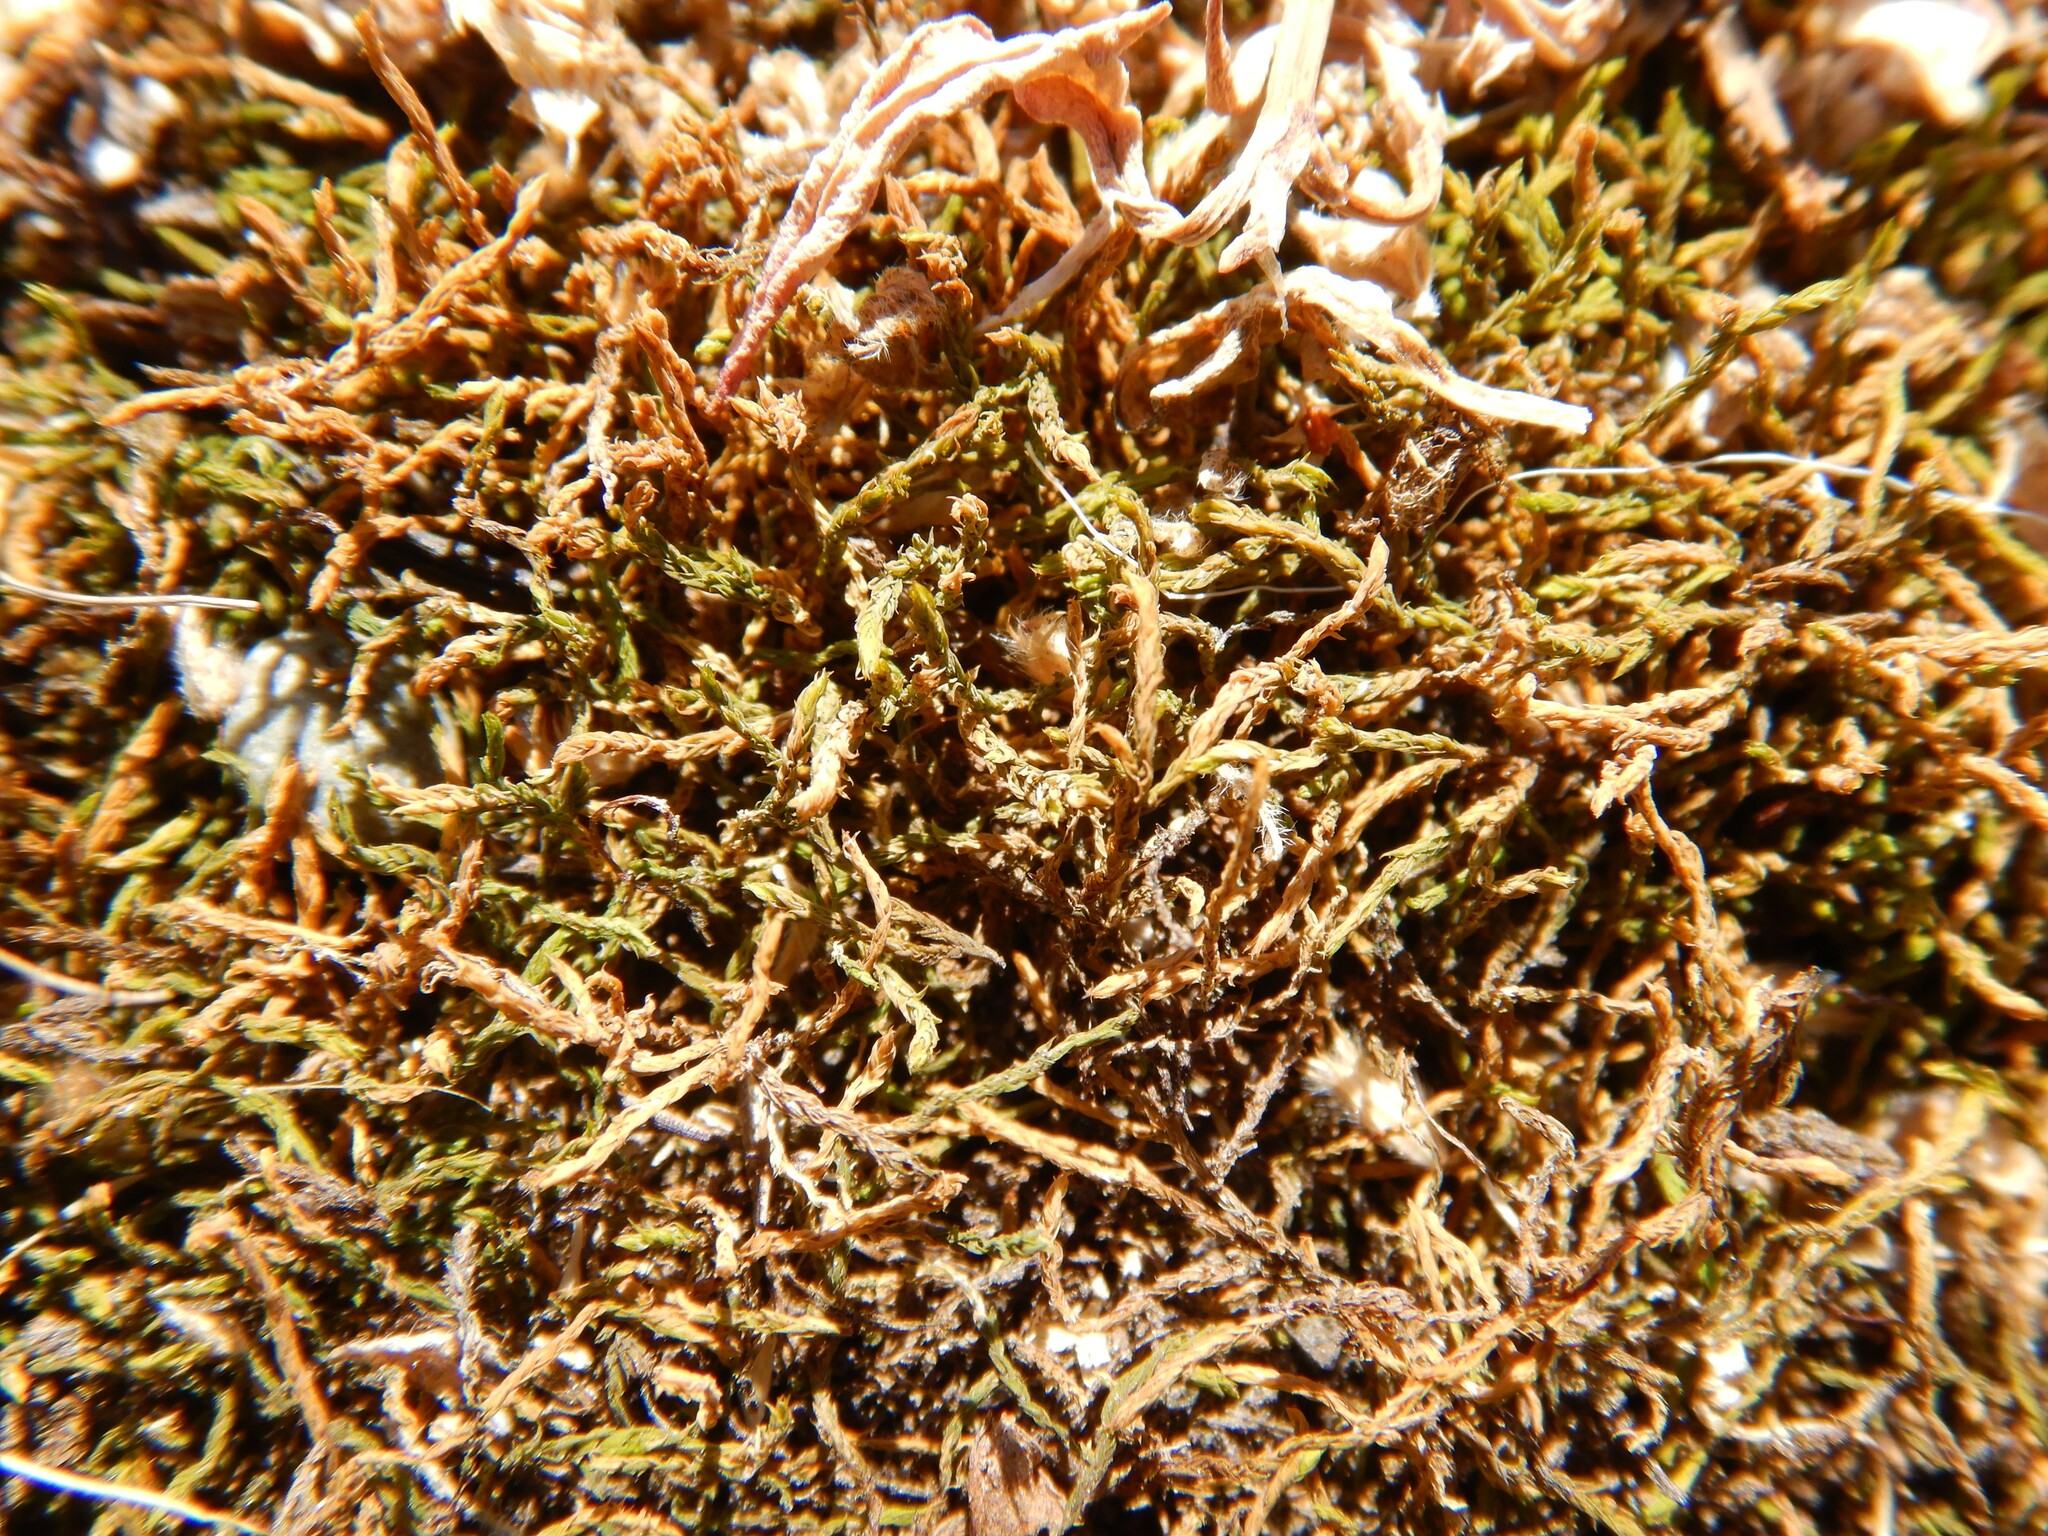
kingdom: Plantae
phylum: Bryophyta
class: Bryopsida
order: Pottiales
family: Pottiaceae
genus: Triquetrella
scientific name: Triquetrella papillata
